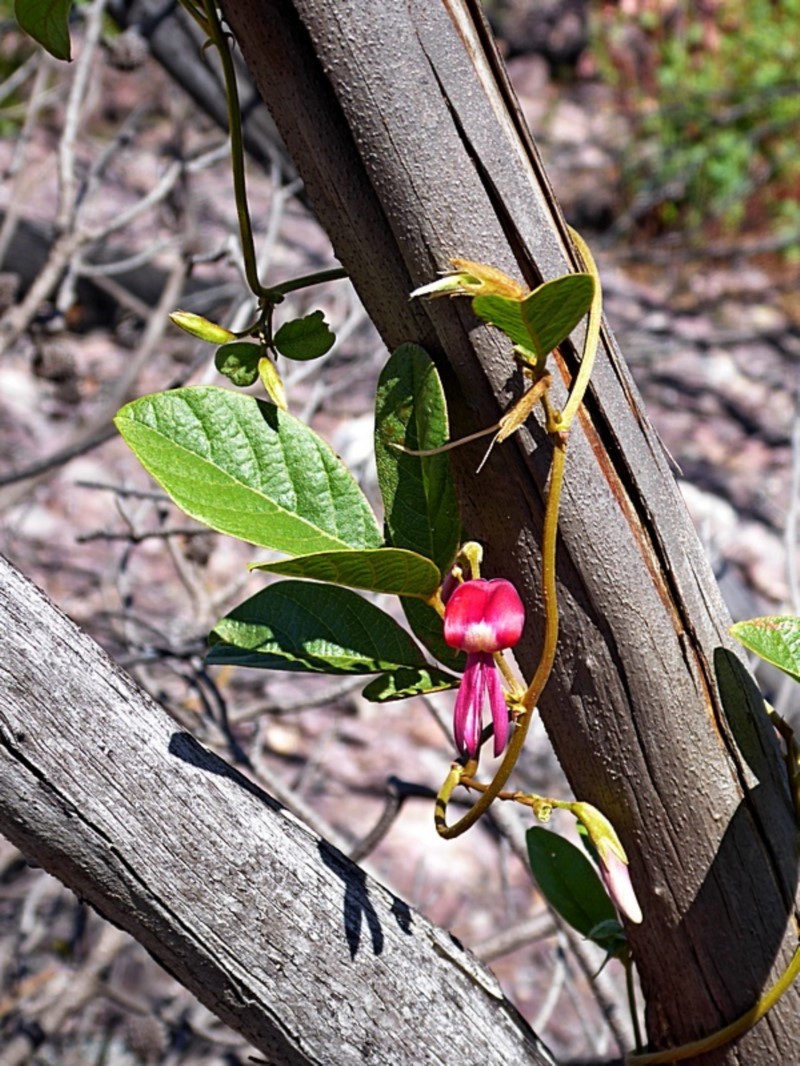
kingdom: Plantae
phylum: Tracheophyta
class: Magnoliopsida
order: Fabales
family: Fabaceae
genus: Kennedia
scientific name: Kennedia rubicunda
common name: Red kennedy-pea
